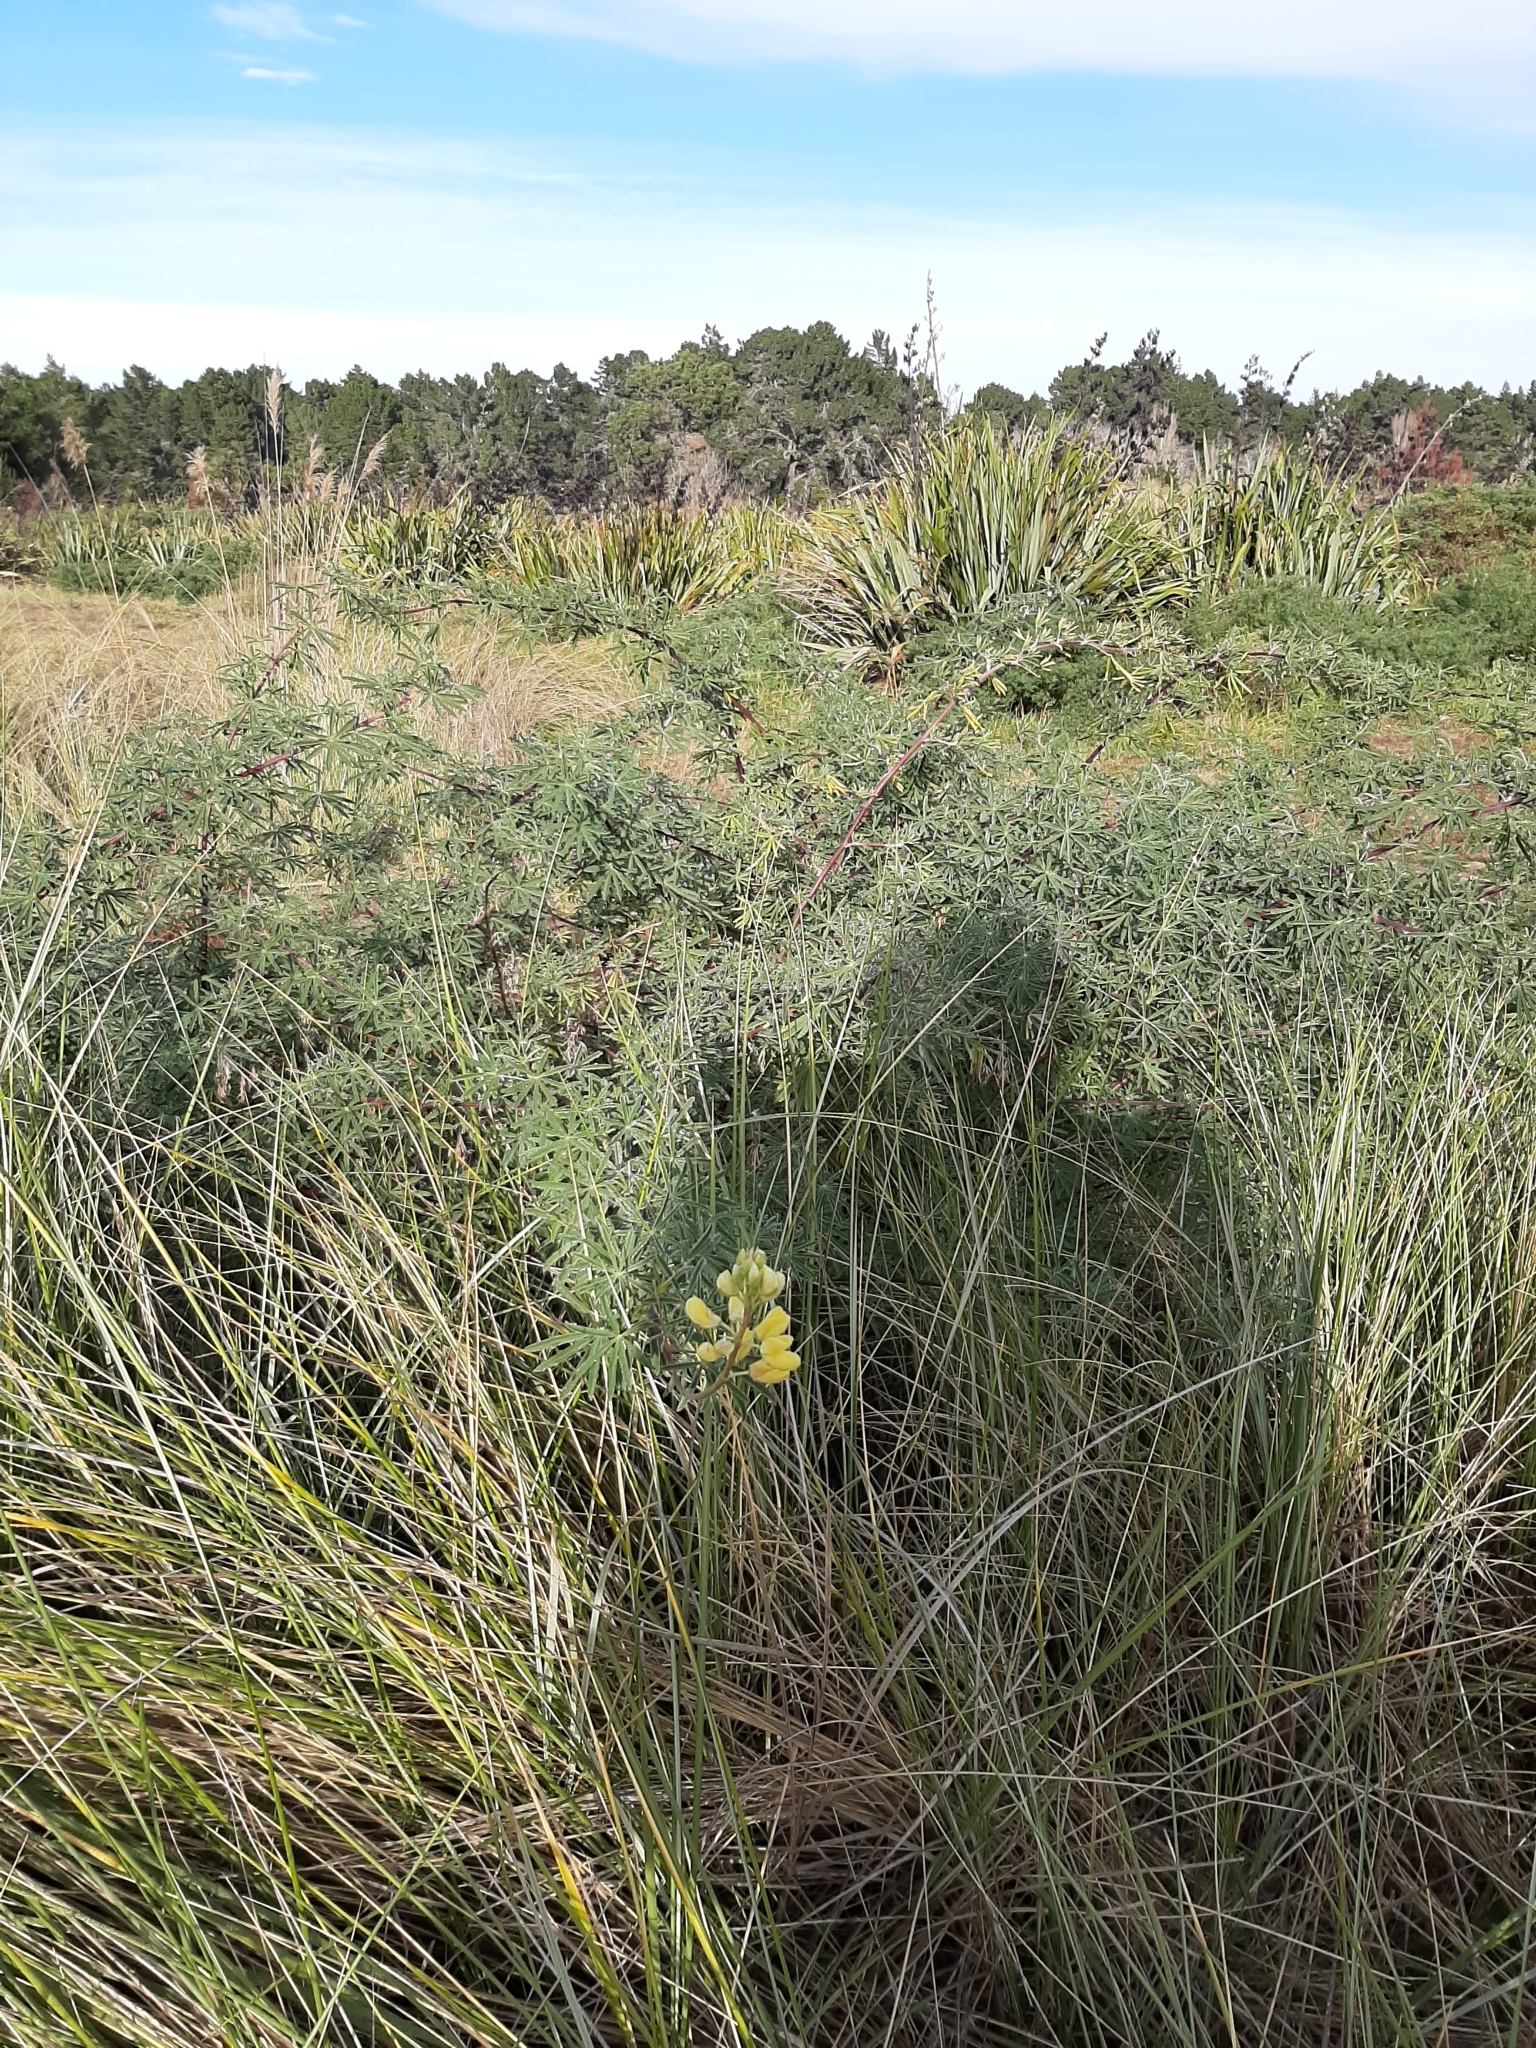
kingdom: Plantae
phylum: Tracheophyta
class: Magnoliopsida
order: Fabales
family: Fabaceae
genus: Lupinus
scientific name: Lupinus arboreus
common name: Yellow bush lupine
